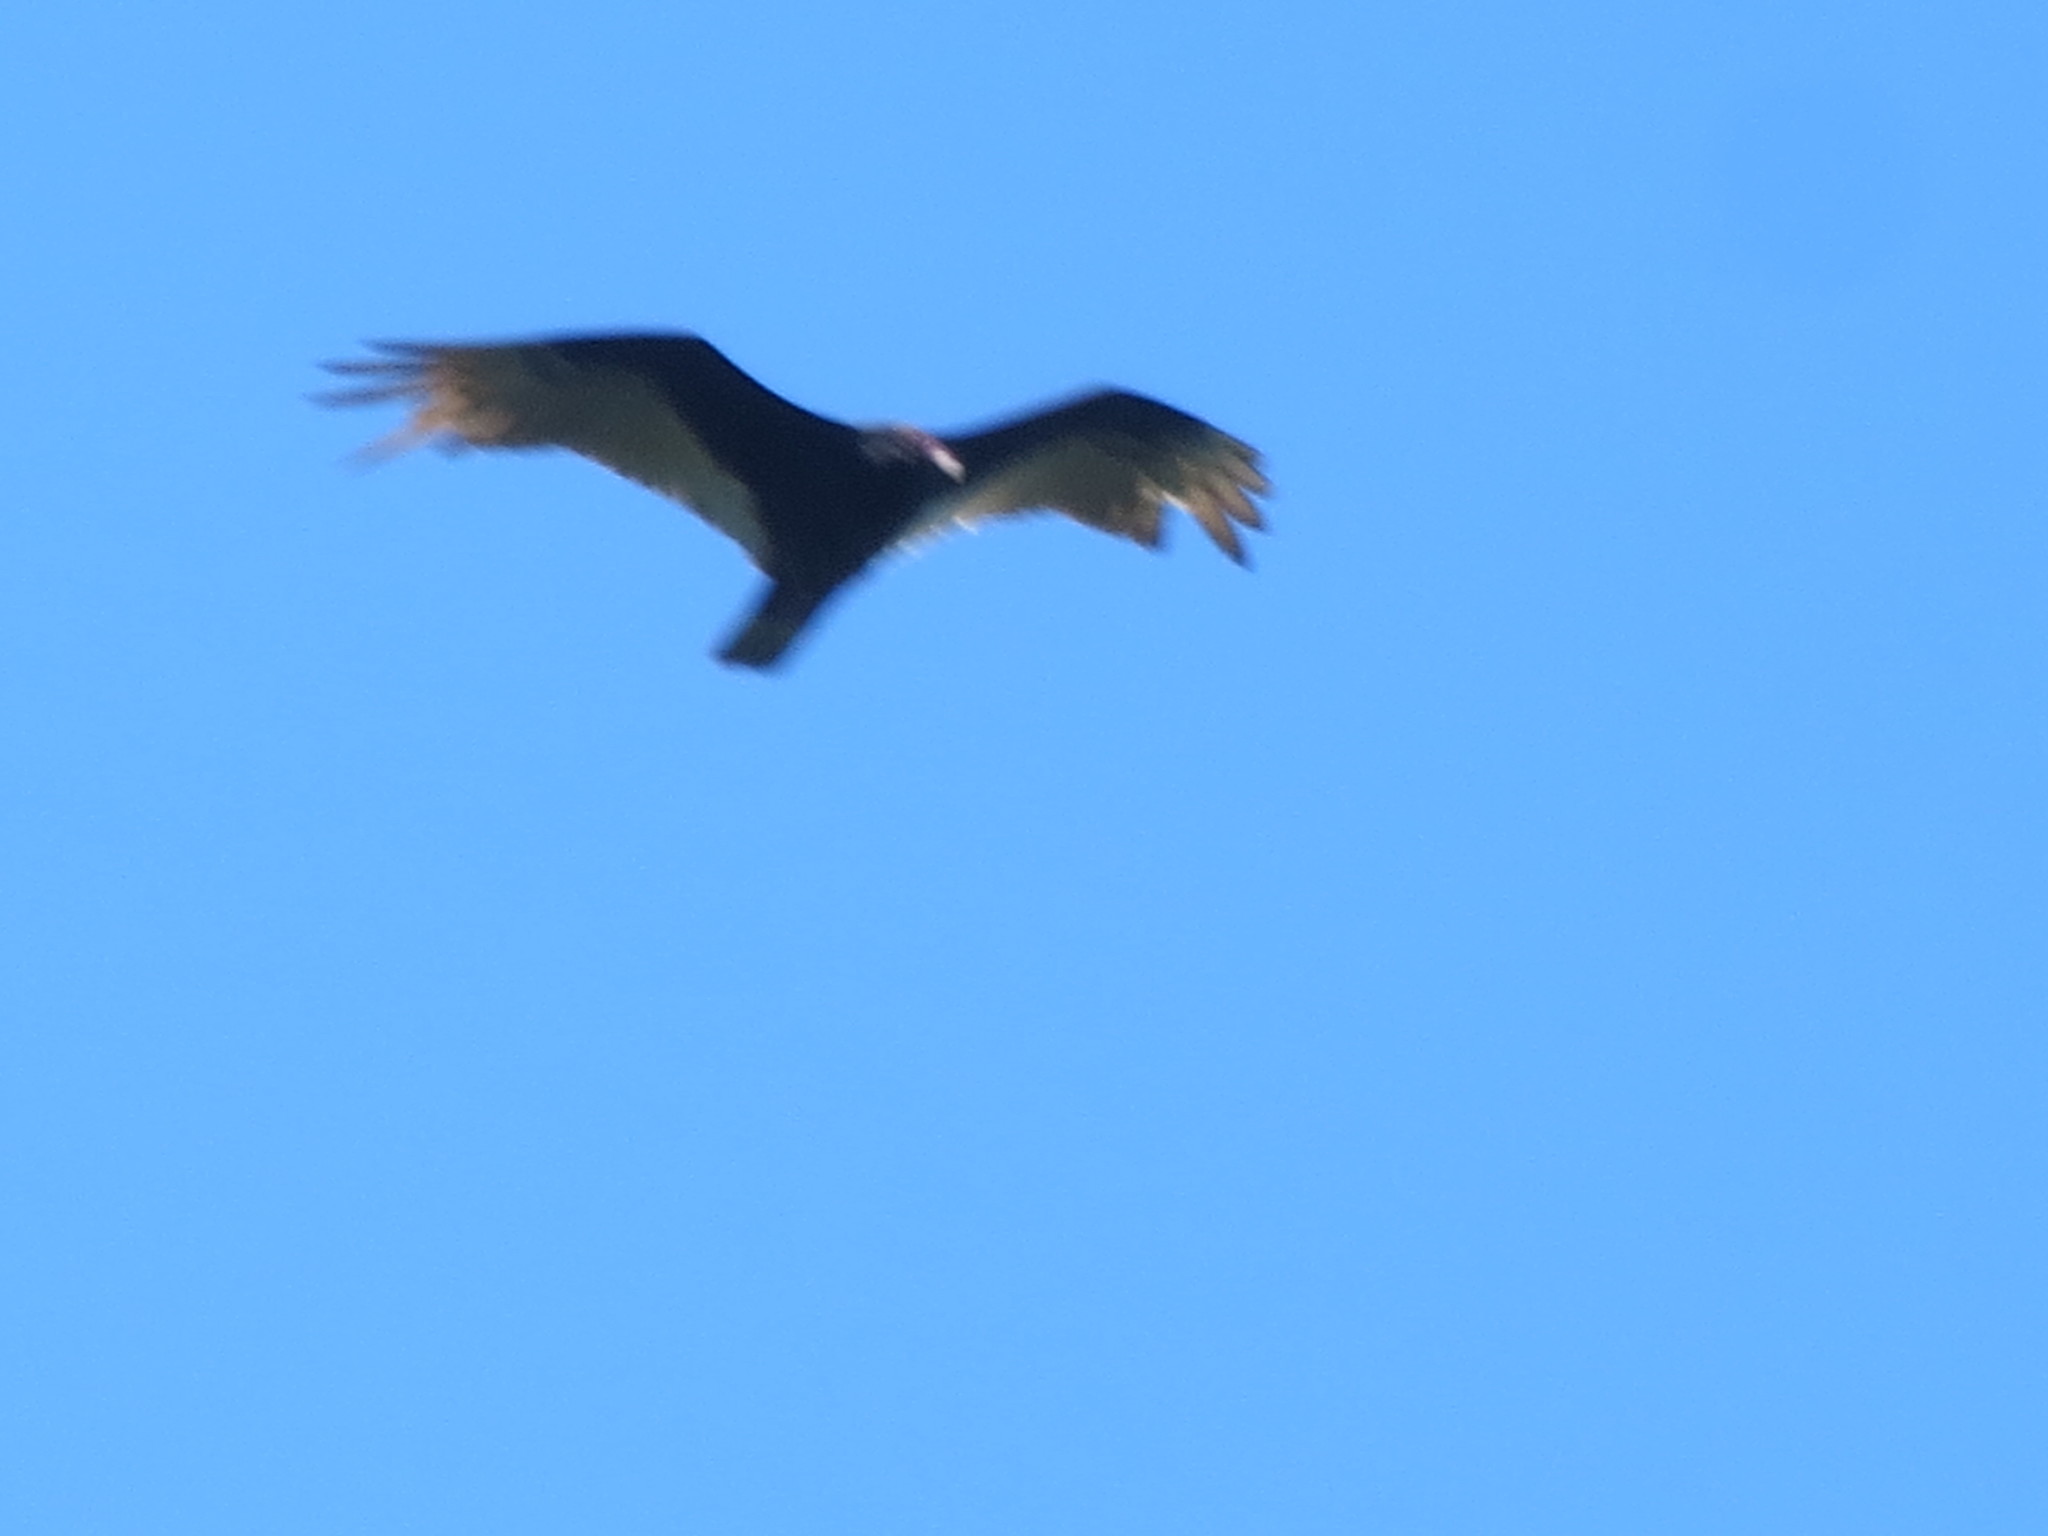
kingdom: Animalia
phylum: Chordata
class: Aves
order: Accipitriformes
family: Cathartidae
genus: Cathartes
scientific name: Cathartes aura
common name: Turkey vulture
